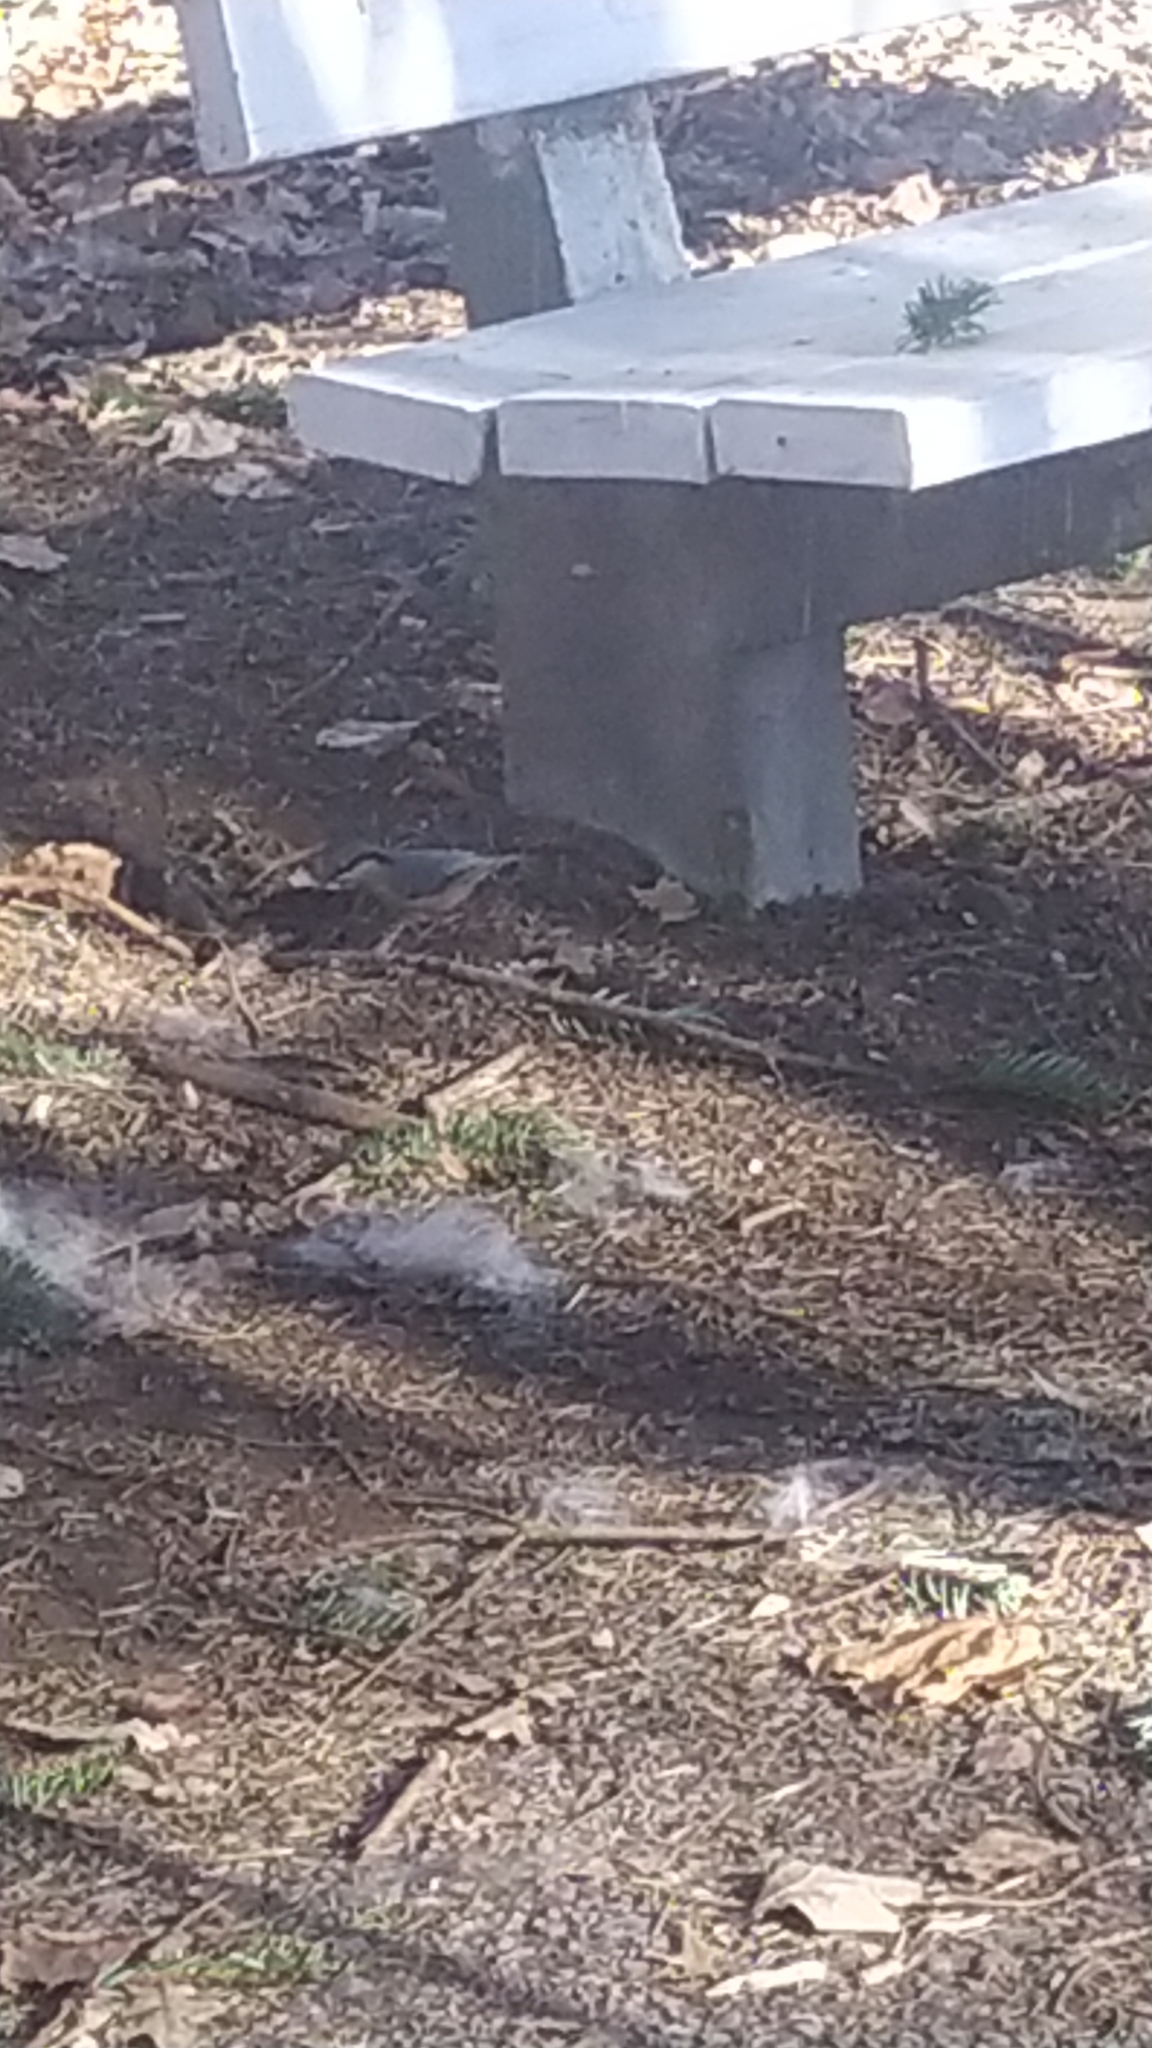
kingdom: Animalia
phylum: Chordata
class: Aves
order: Passeriformes
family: Sittidae
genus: Sitta
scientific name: Sitta europaea
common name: Eurasian nuthatch
